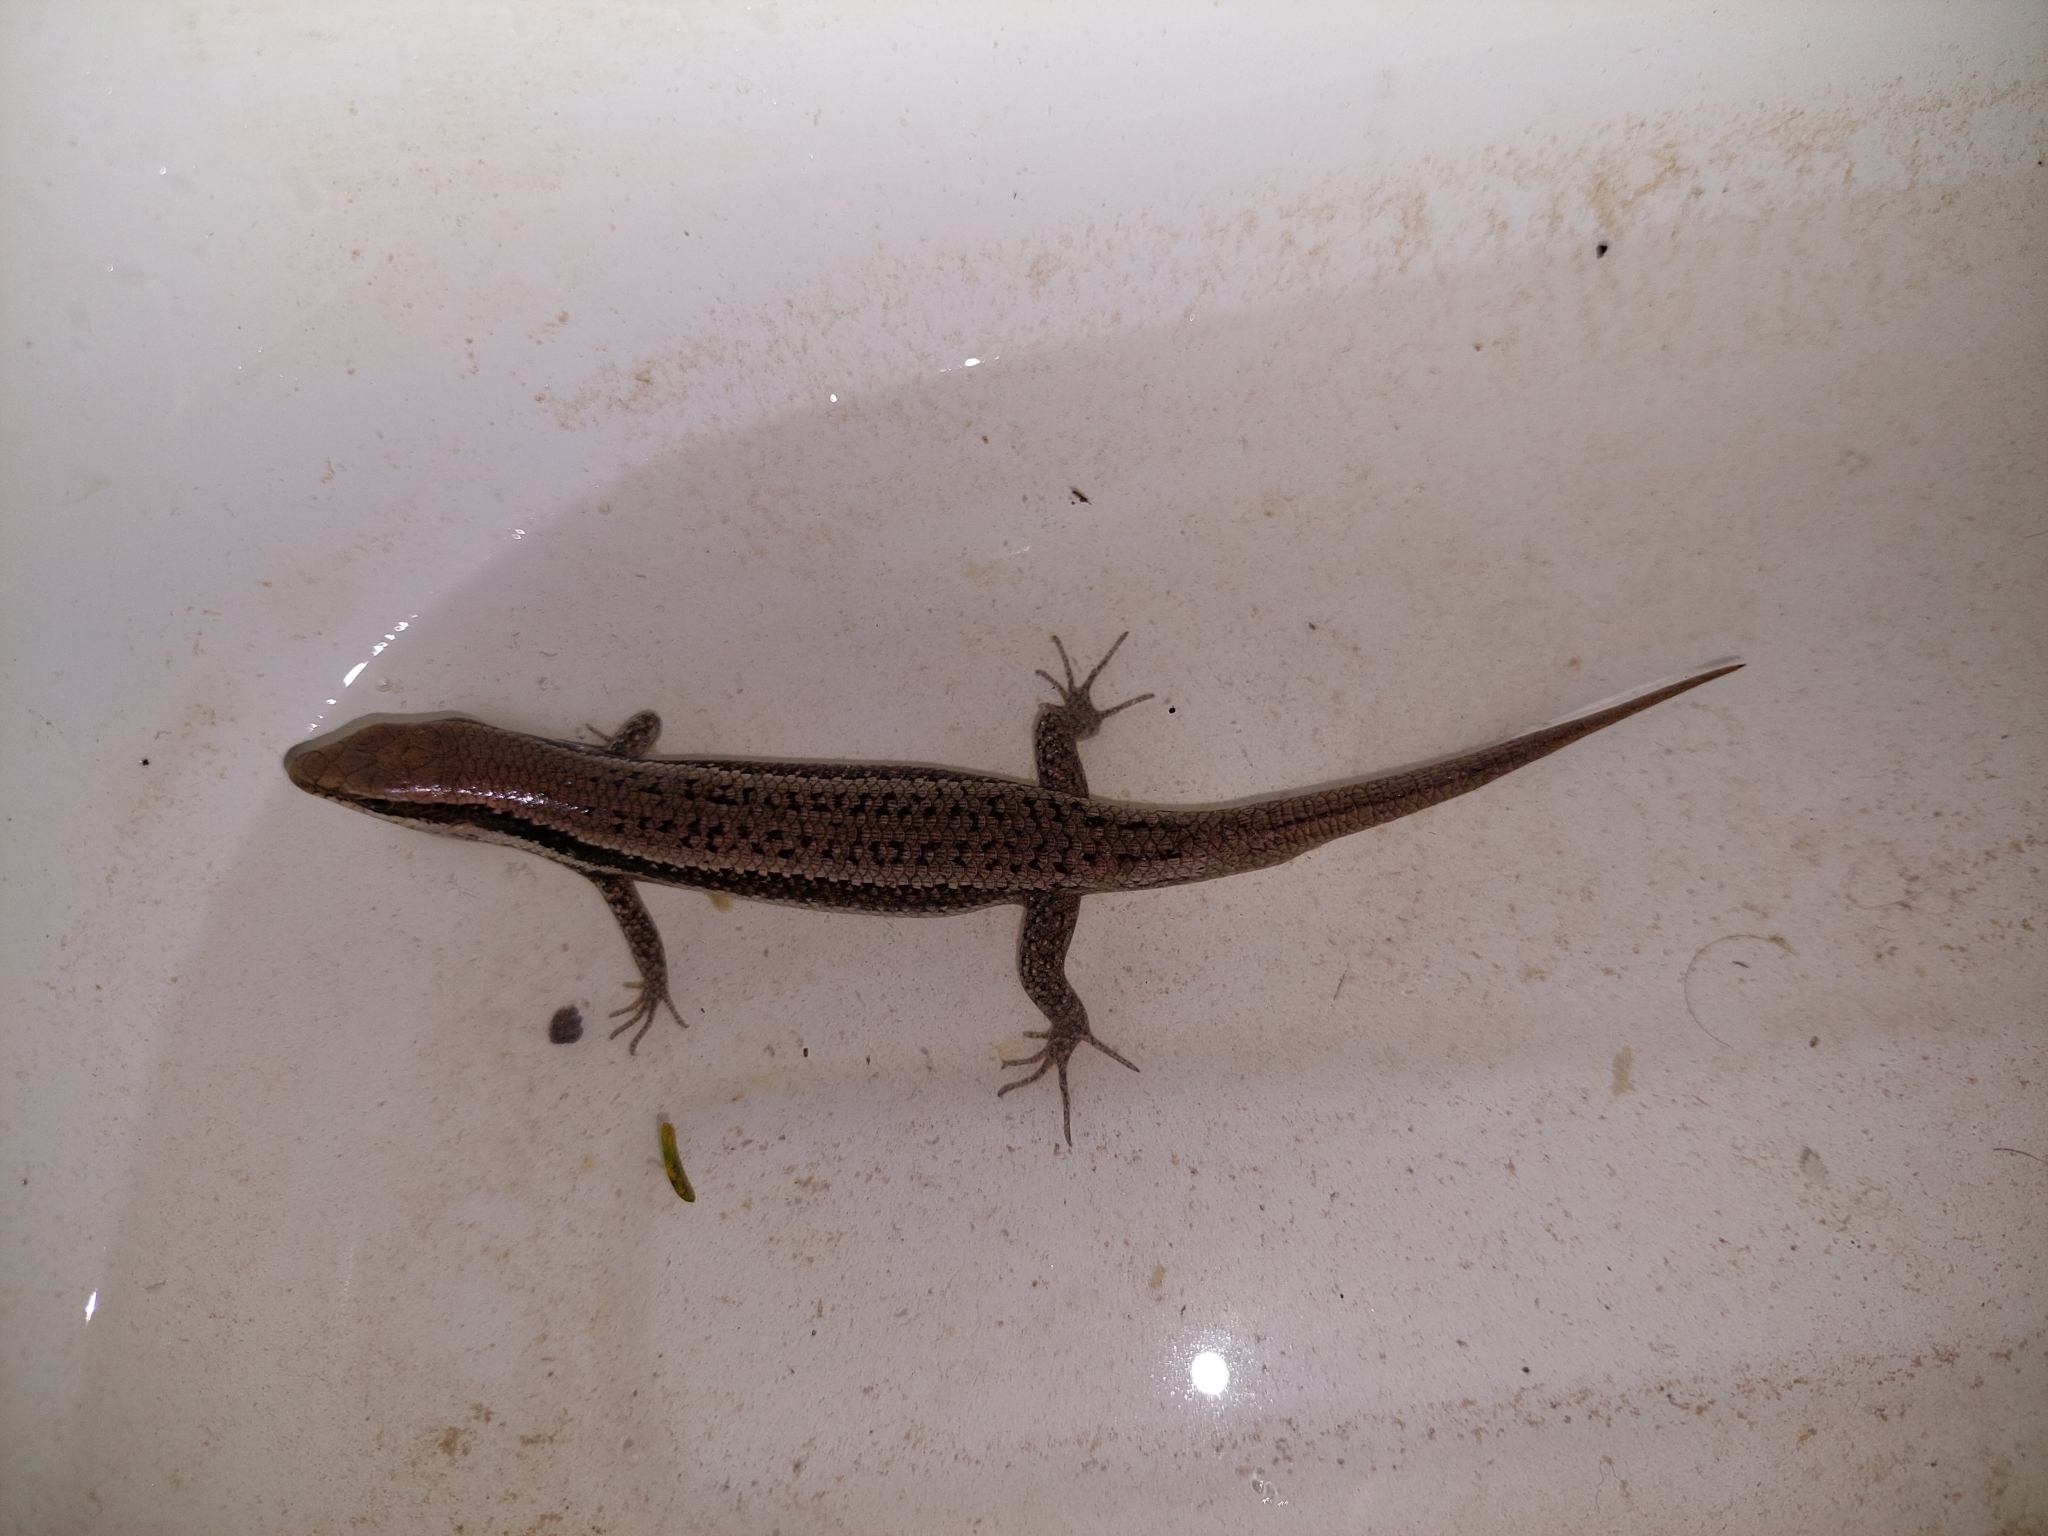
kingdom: Animalia
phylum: Chordata
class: Squamata
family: Scincidae
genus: Notomabuya
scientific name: Notomabuya frenata
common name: Cope's mabuya
